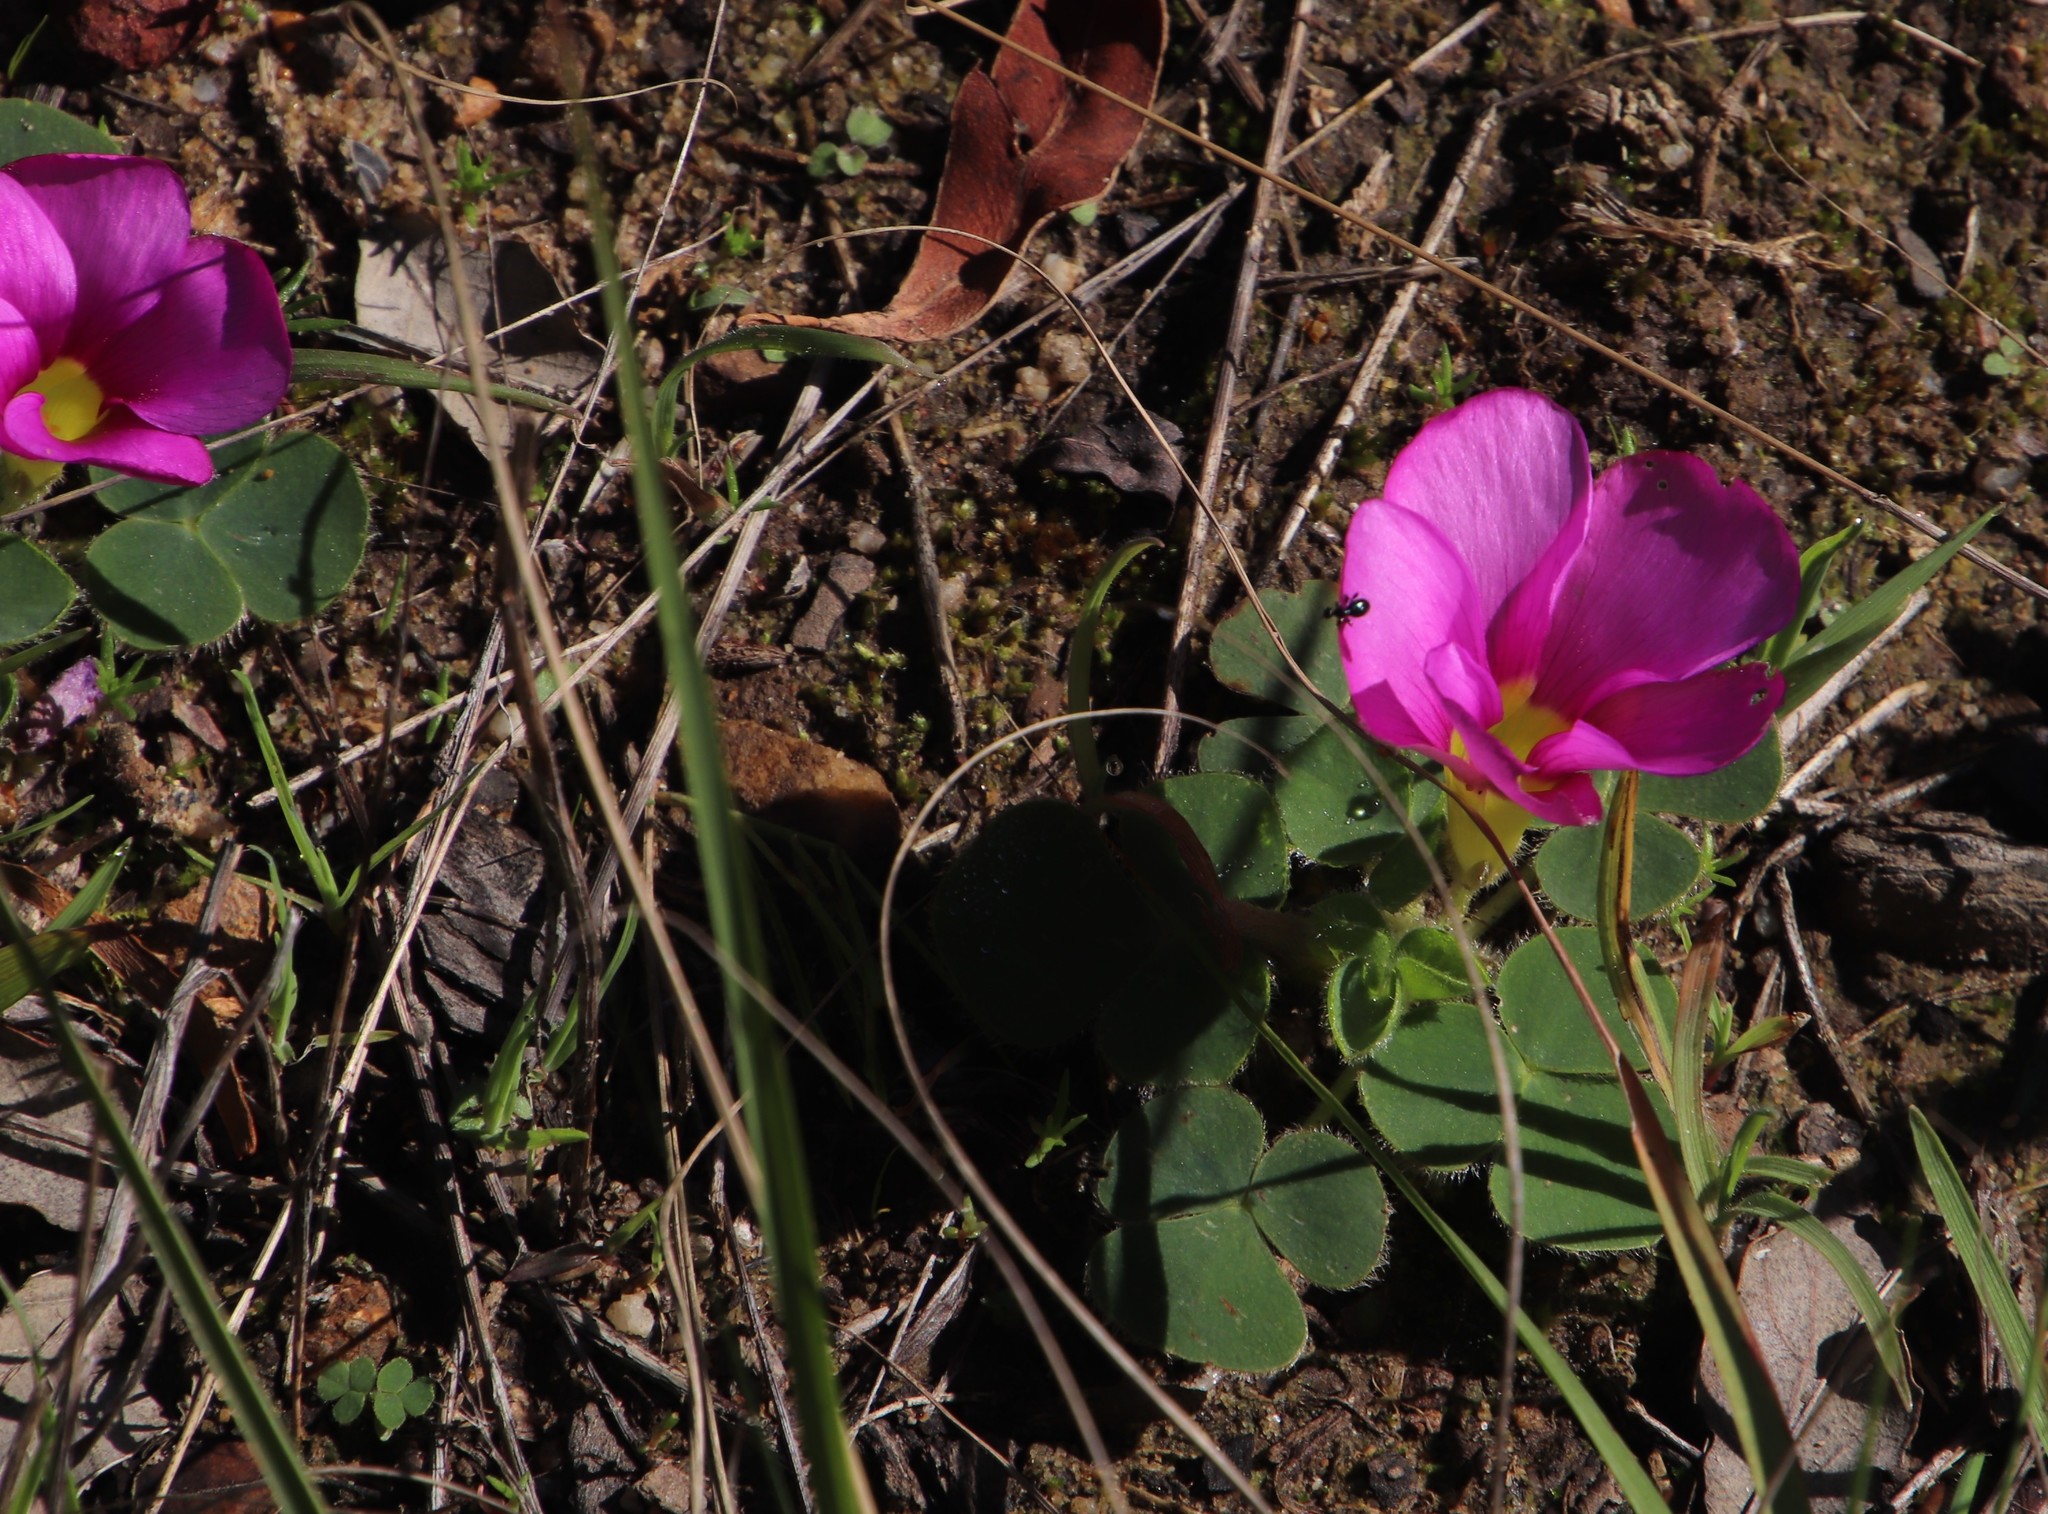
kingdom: Plantae
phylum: Tracheophyta
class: Magnoliopsida
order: Oxalidales
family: Oxalidaceae
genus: Oxalis
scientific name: Oxalis purpurea
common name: Purple woodsorrel
